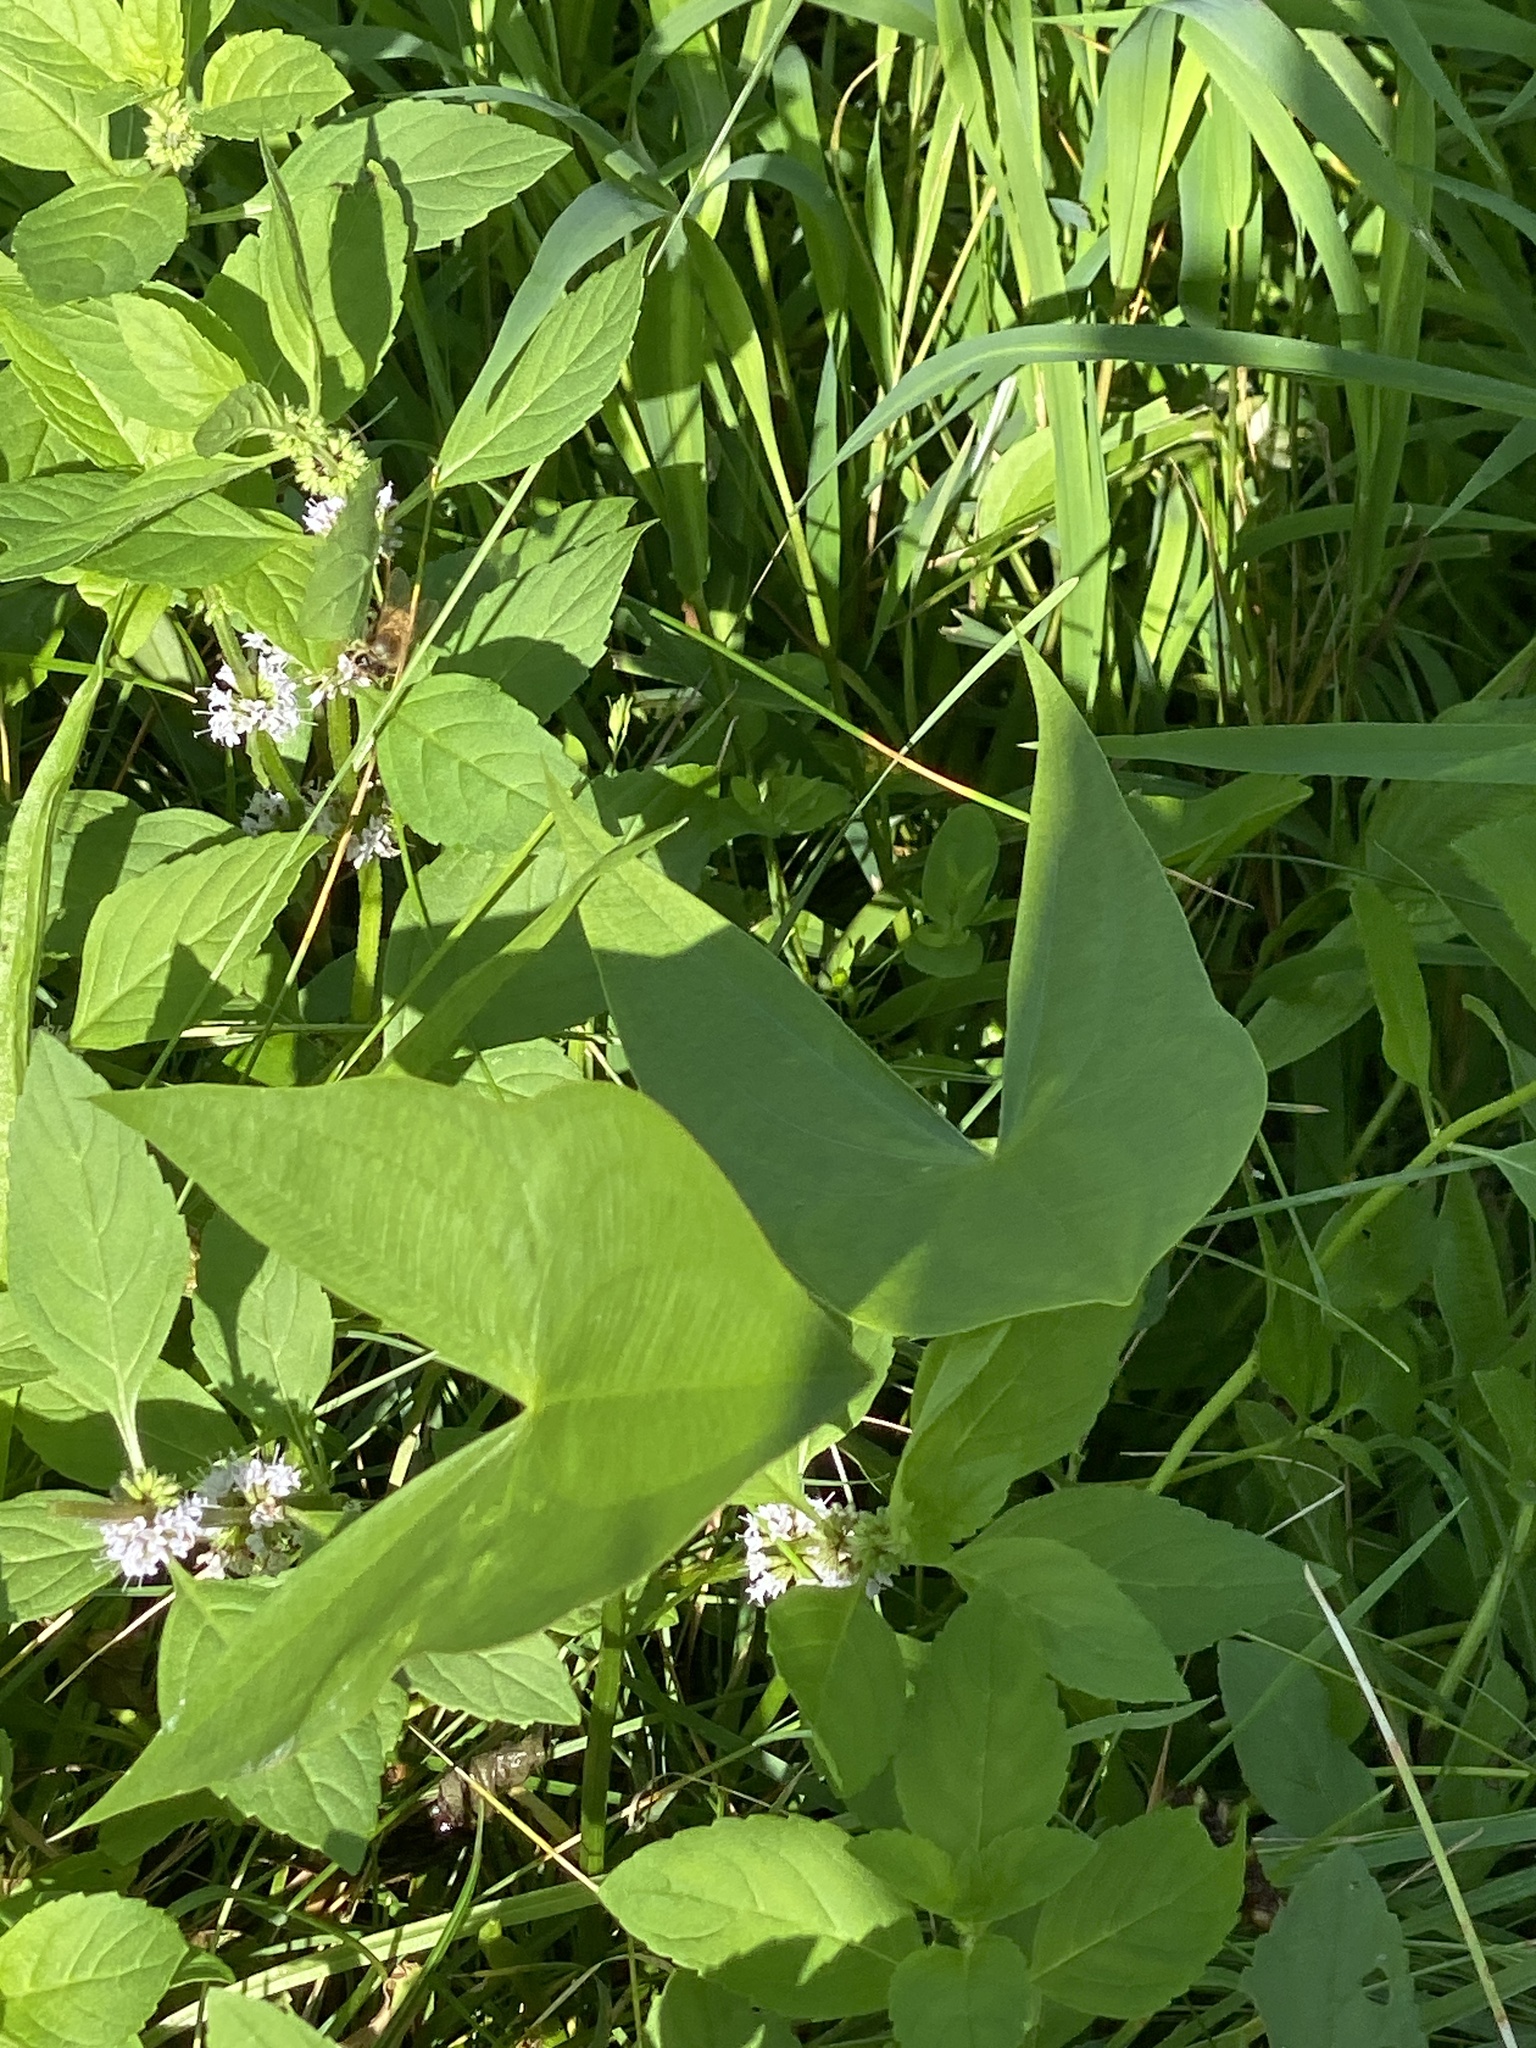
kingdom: Plantae
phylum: Tracheophyta
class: Liliopsida
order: Alismatales
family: Alismataceae
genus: Sagittaria
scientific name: Sagittaria latifolia
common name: Duck-potato
